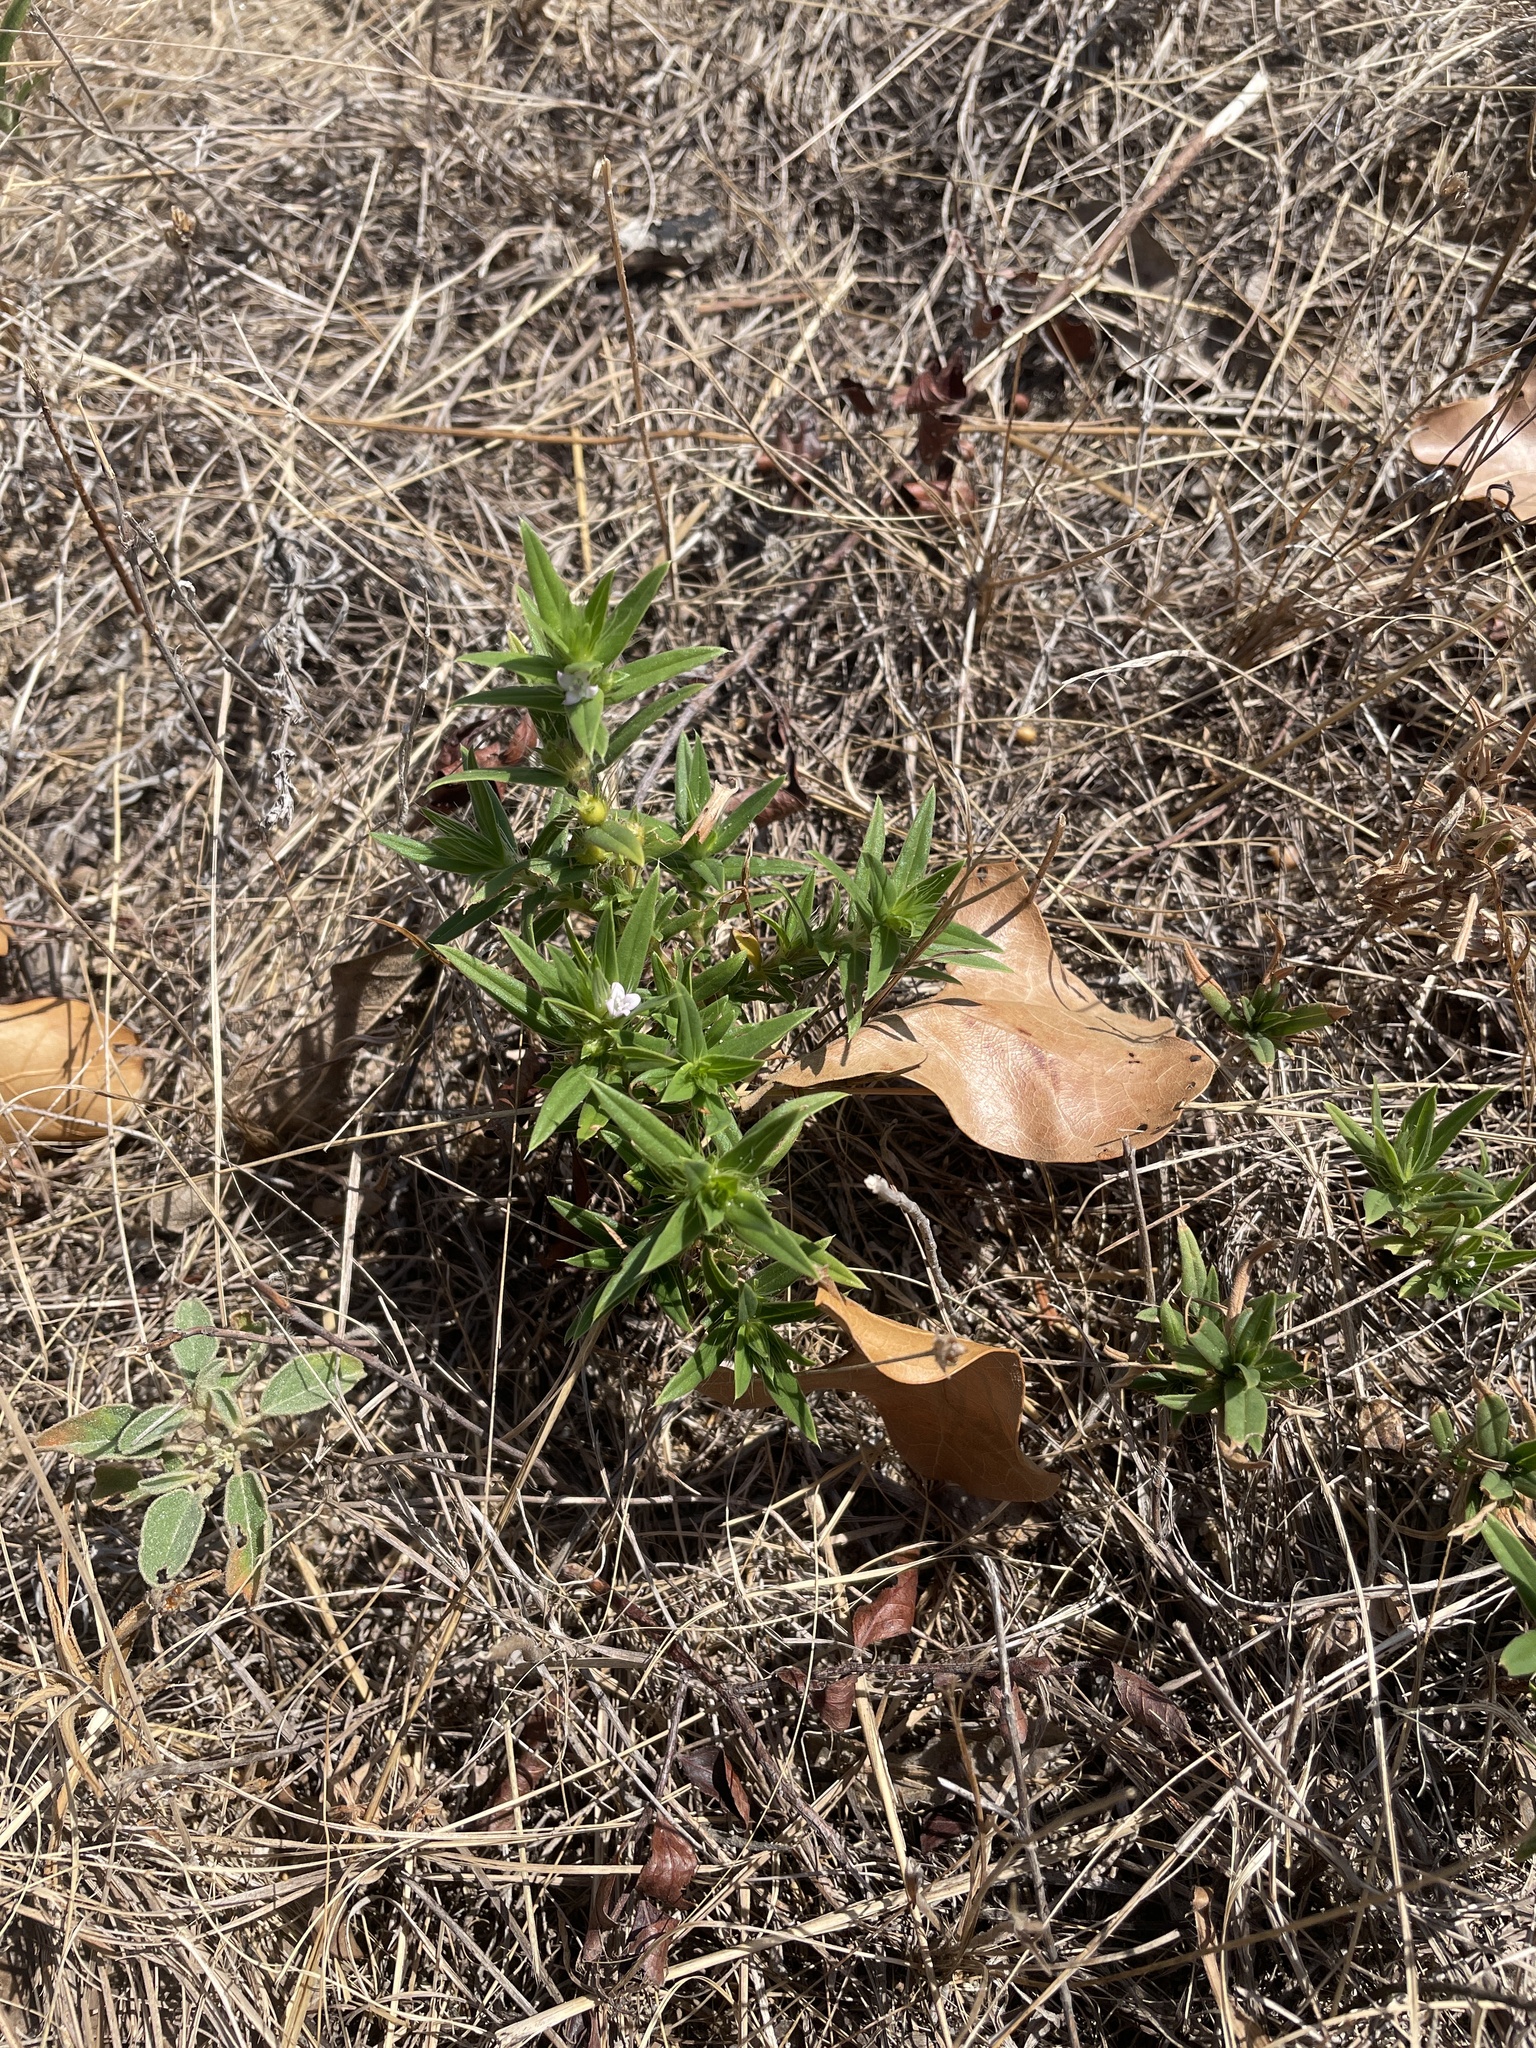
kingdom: Plantae
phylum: Tracheophyta
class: Magnoliopsida
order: Gentianales
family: Rubiaceae
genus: Hexasepalum
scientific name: Hexasepalum teres
